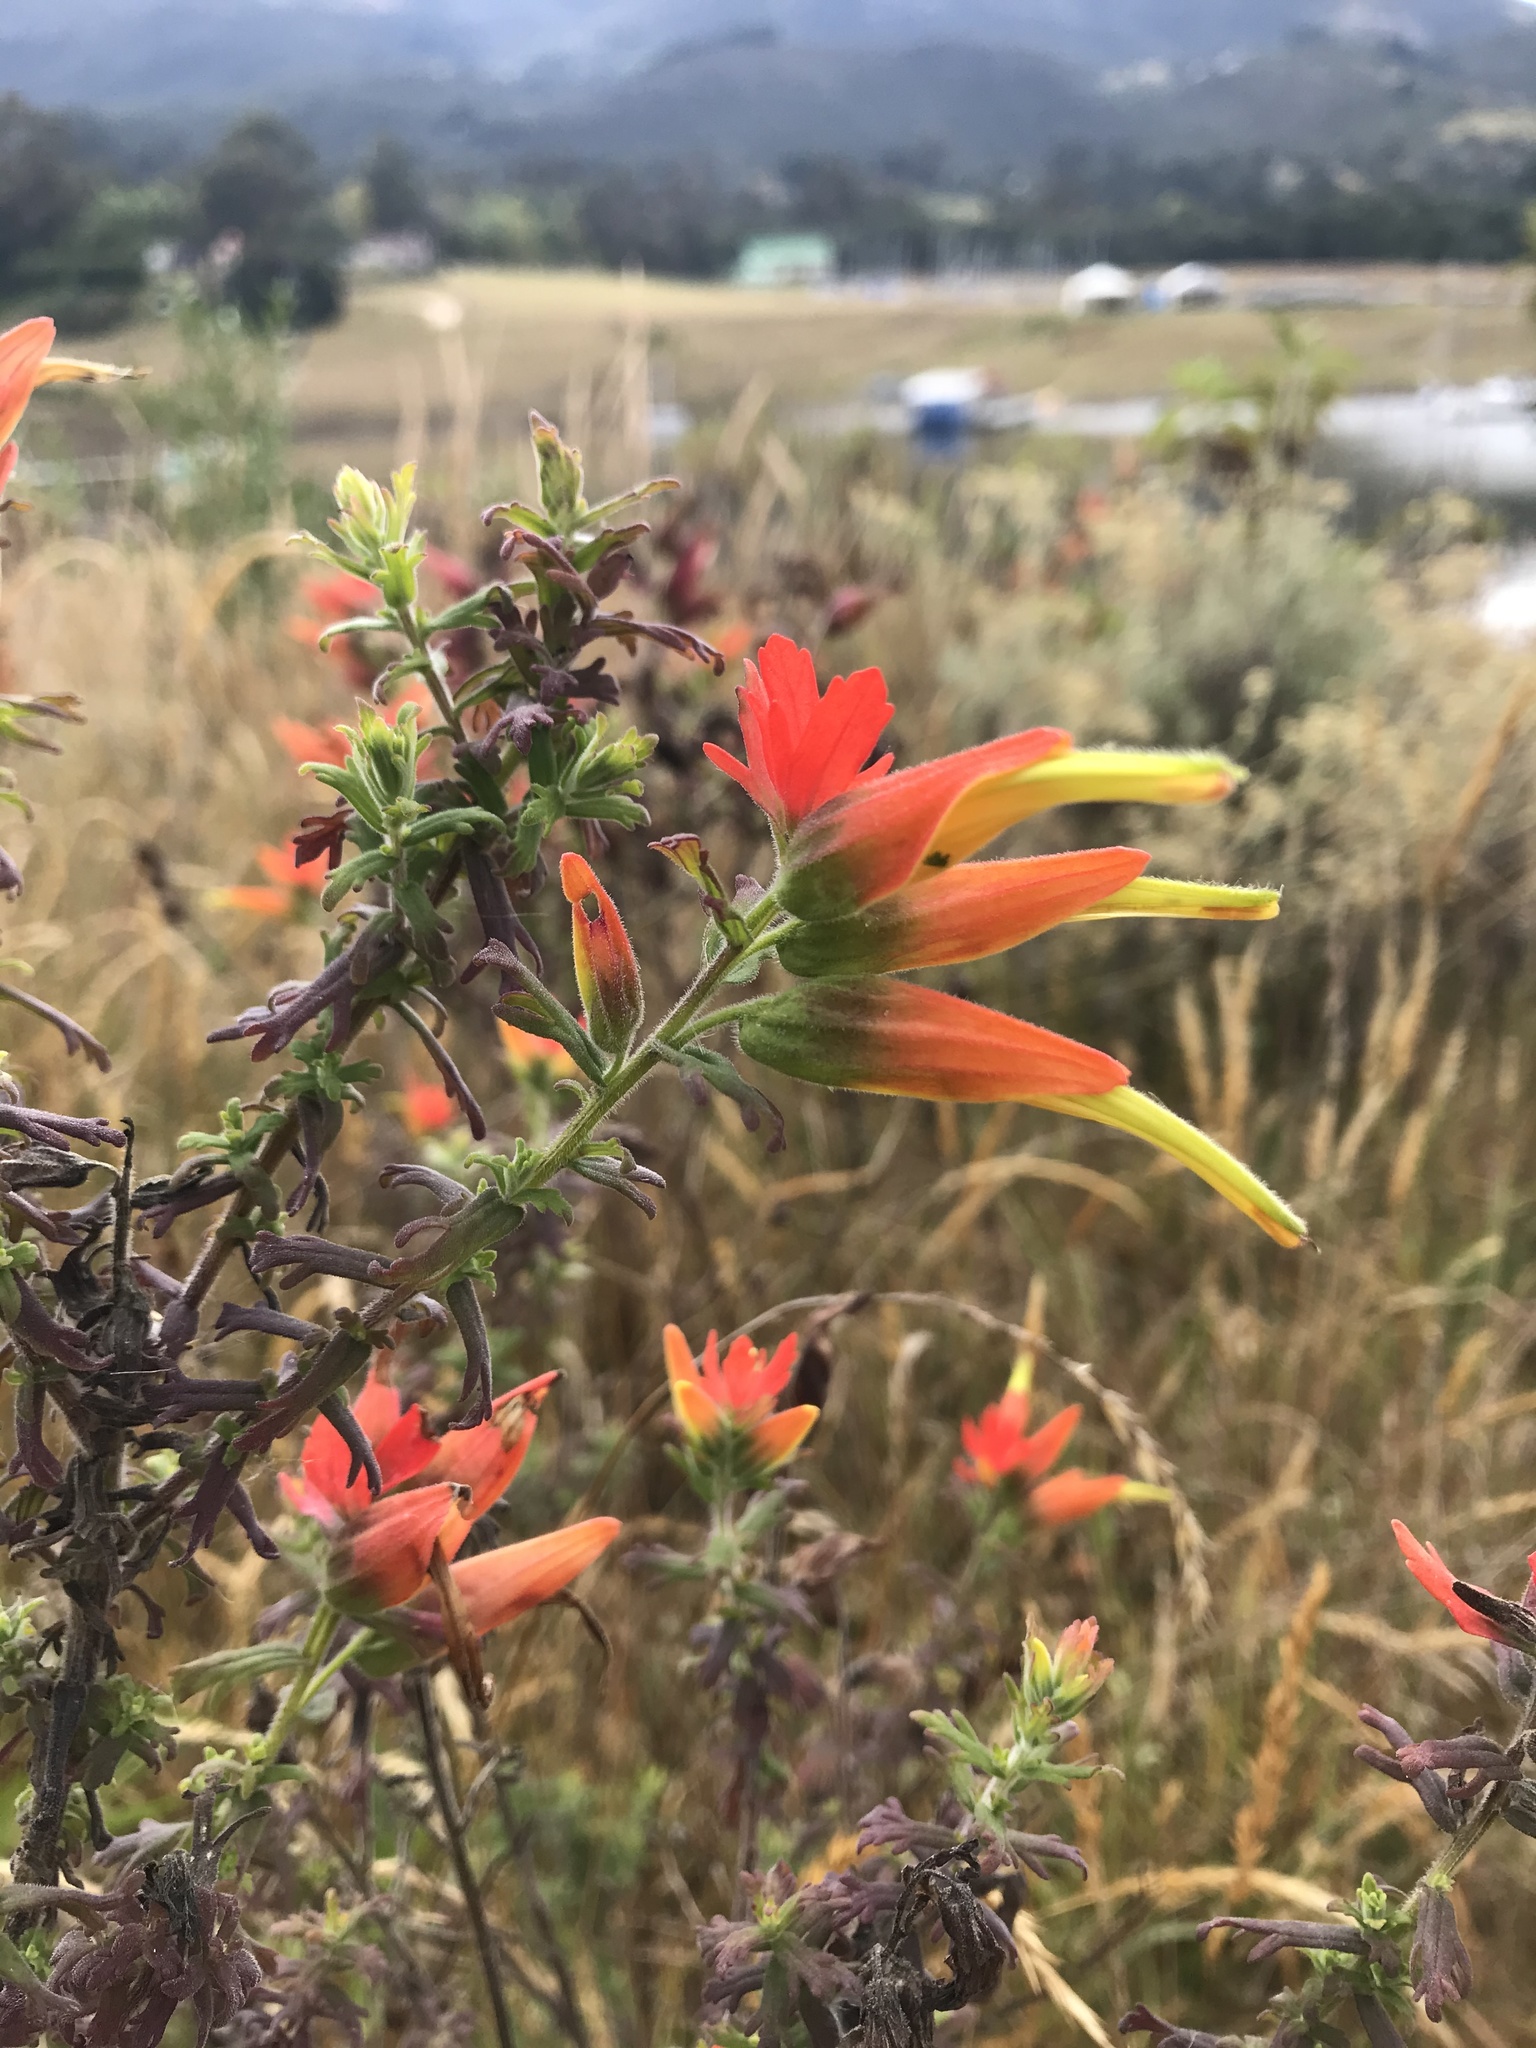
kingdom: Plantae
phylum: Tracheophyta
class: Magnoliopsida
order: Lamiales
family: Orobanchaceae
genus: Castilleja
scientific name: Castilleja fissifolia
